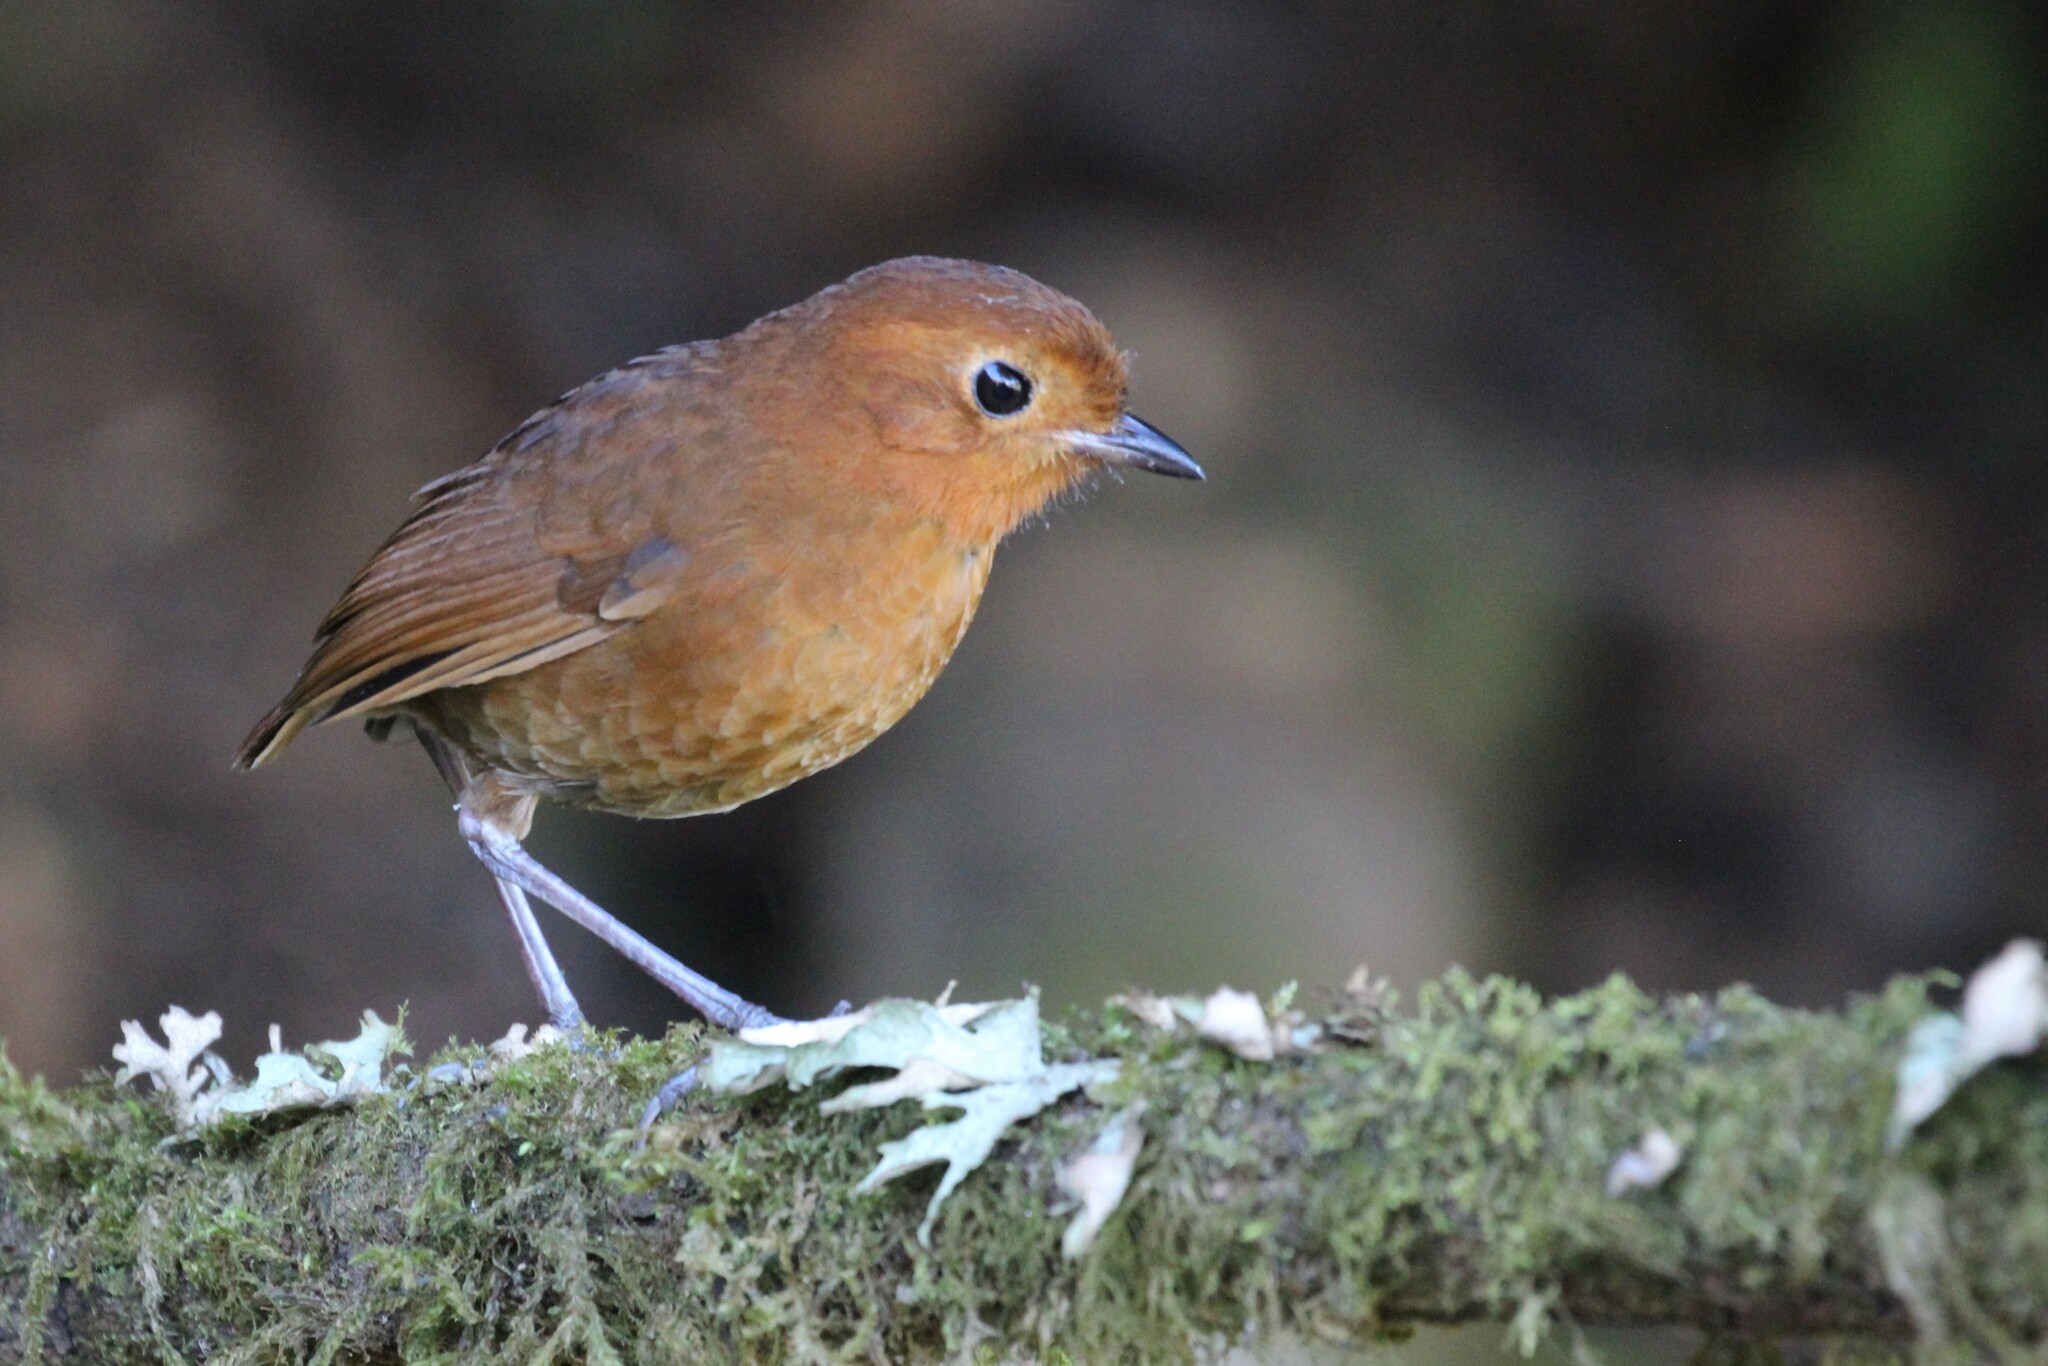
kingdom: Animalia
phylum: Chordata
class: Aves
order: Passeriformes
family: Grallariidae
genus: Grallaria
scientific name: Grallaria saturata
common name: Equatorial antpitta
